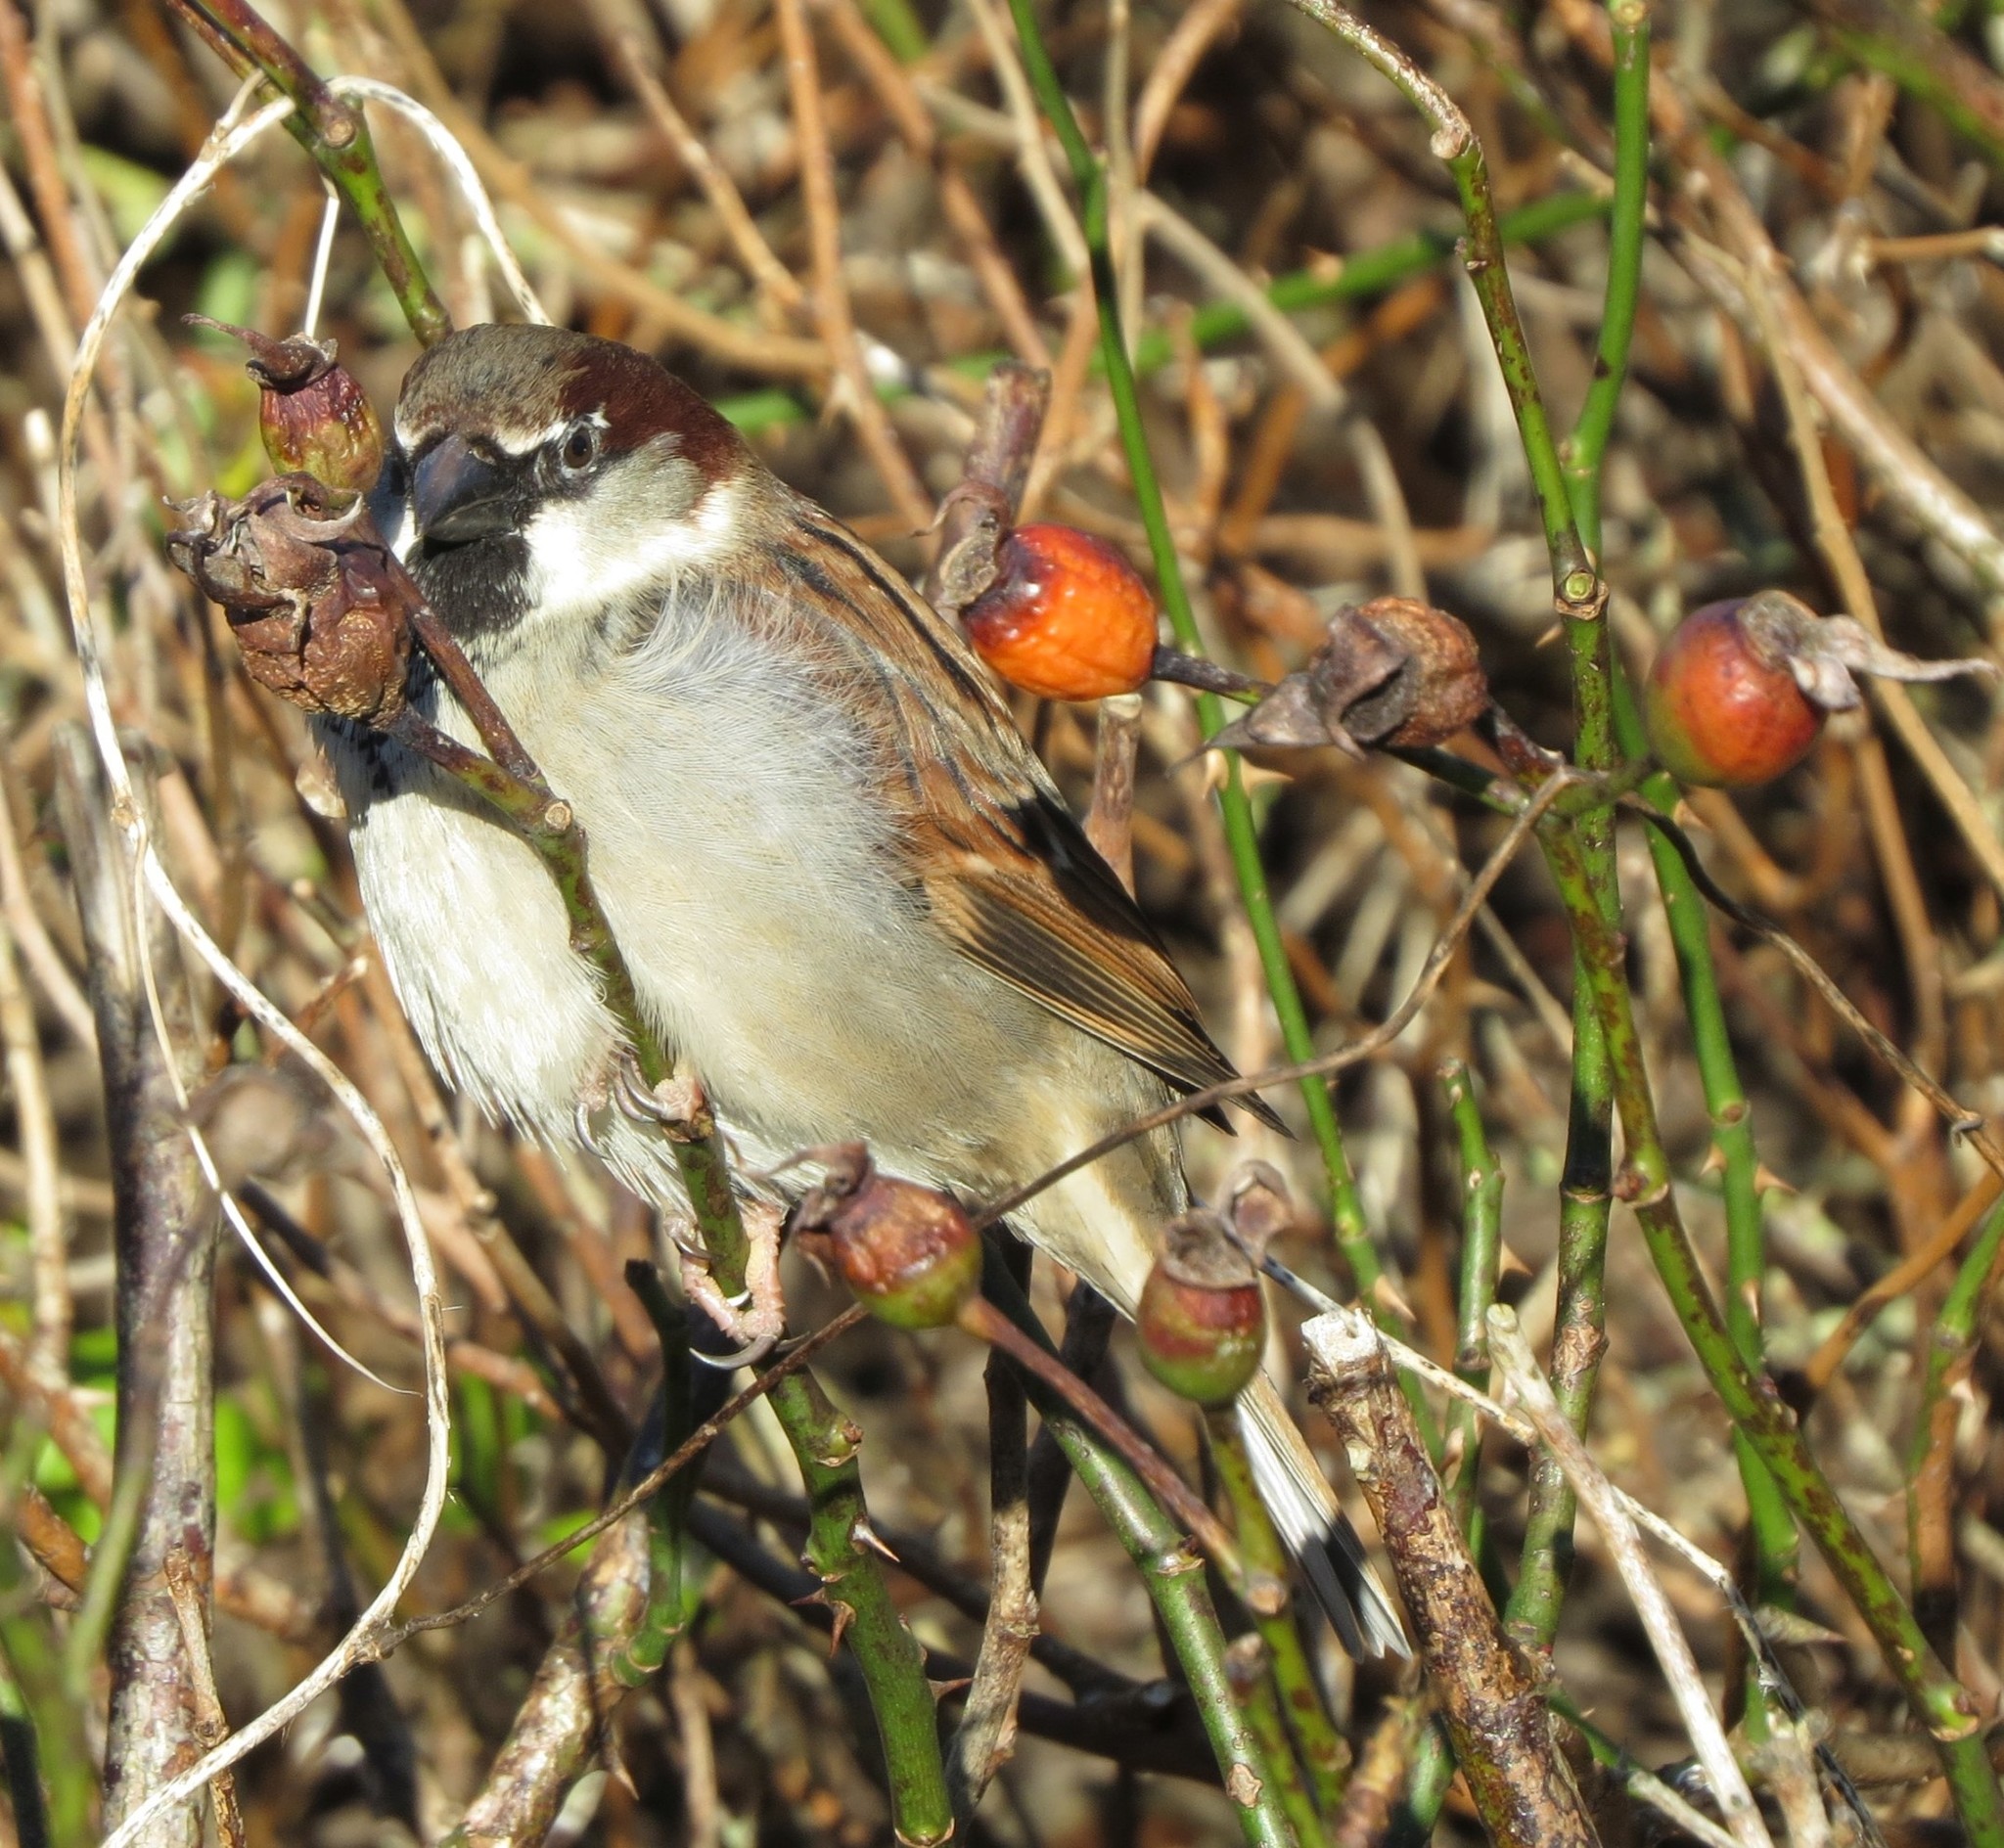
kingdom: Animalia
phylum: Chordata
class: Aves
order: Passeriformes
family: Passeridae
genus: Passer
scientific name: Passer domesticus
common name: House sparrow
